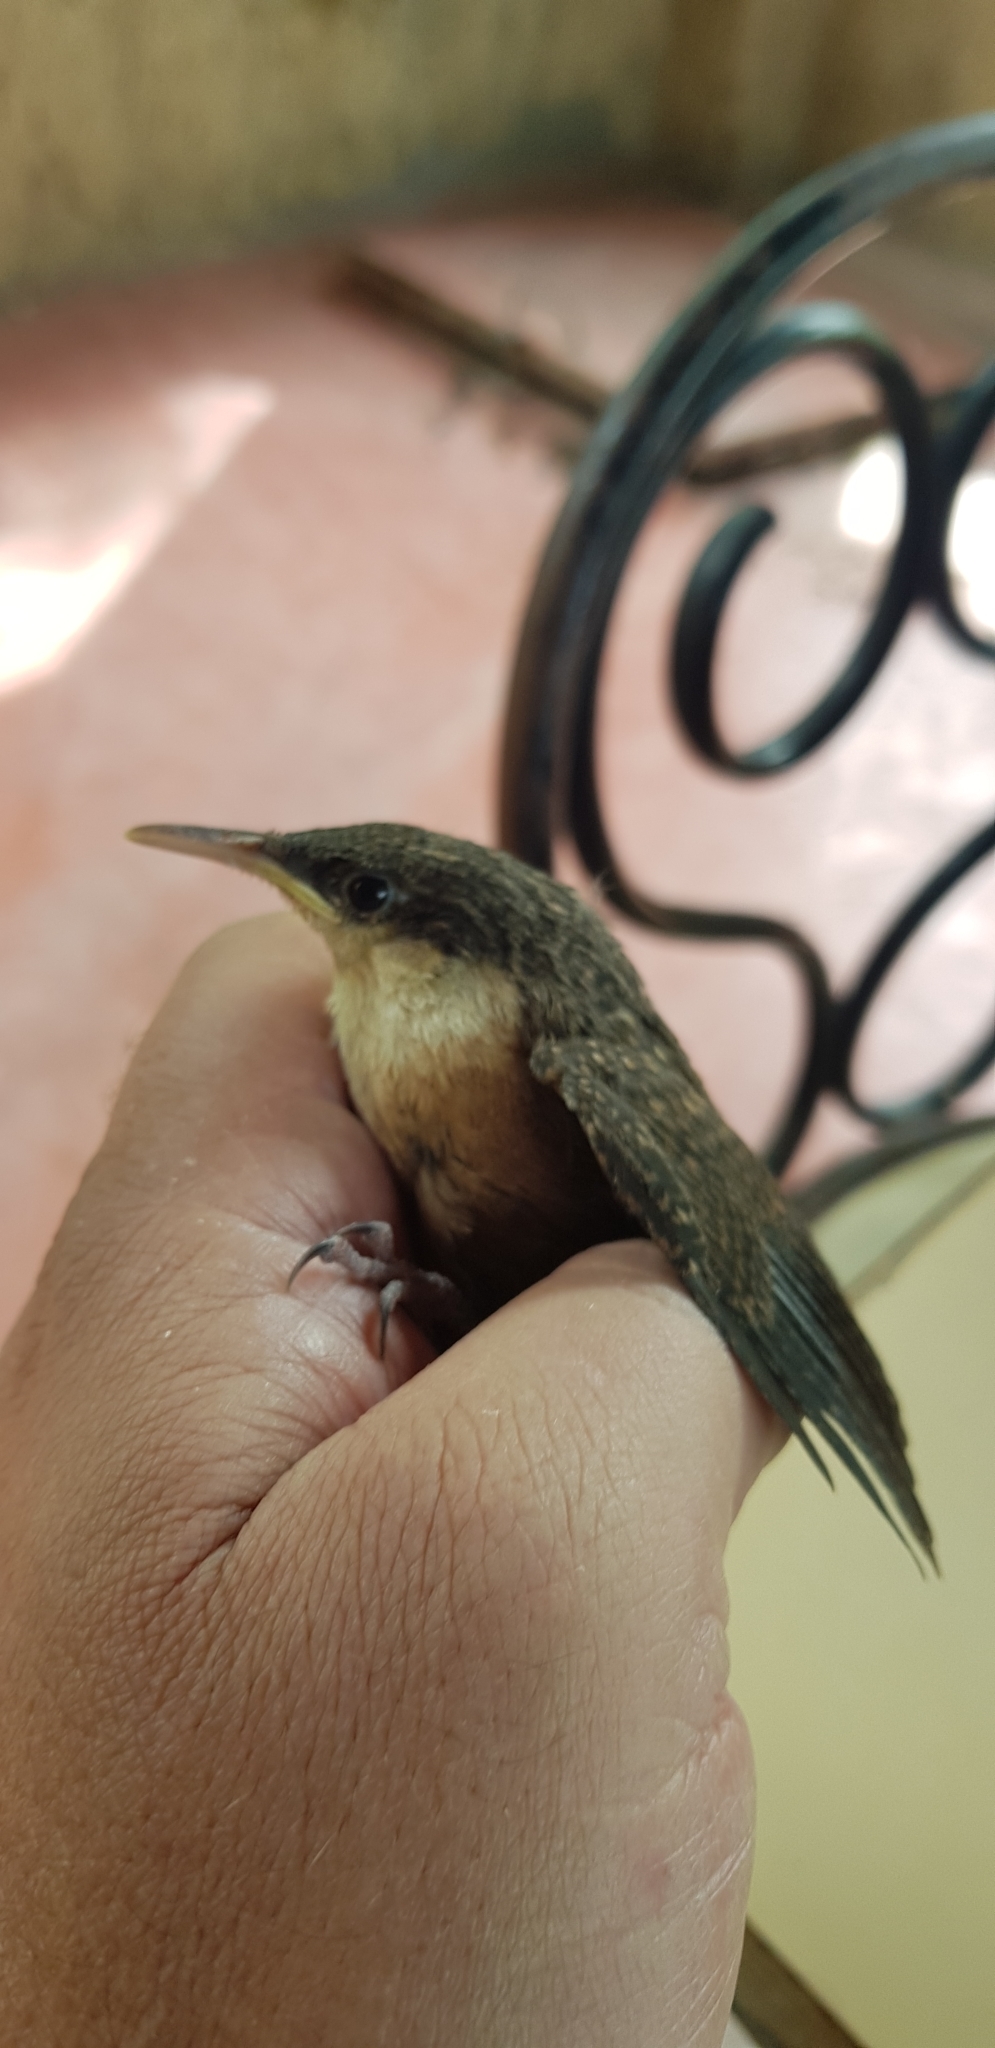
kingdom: Animalia
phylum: Chordata
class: Aves
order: Passeriformes
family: Troglodytidae
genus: Catherpes
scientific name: Catherpes mexicanus
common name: Canyon wren
